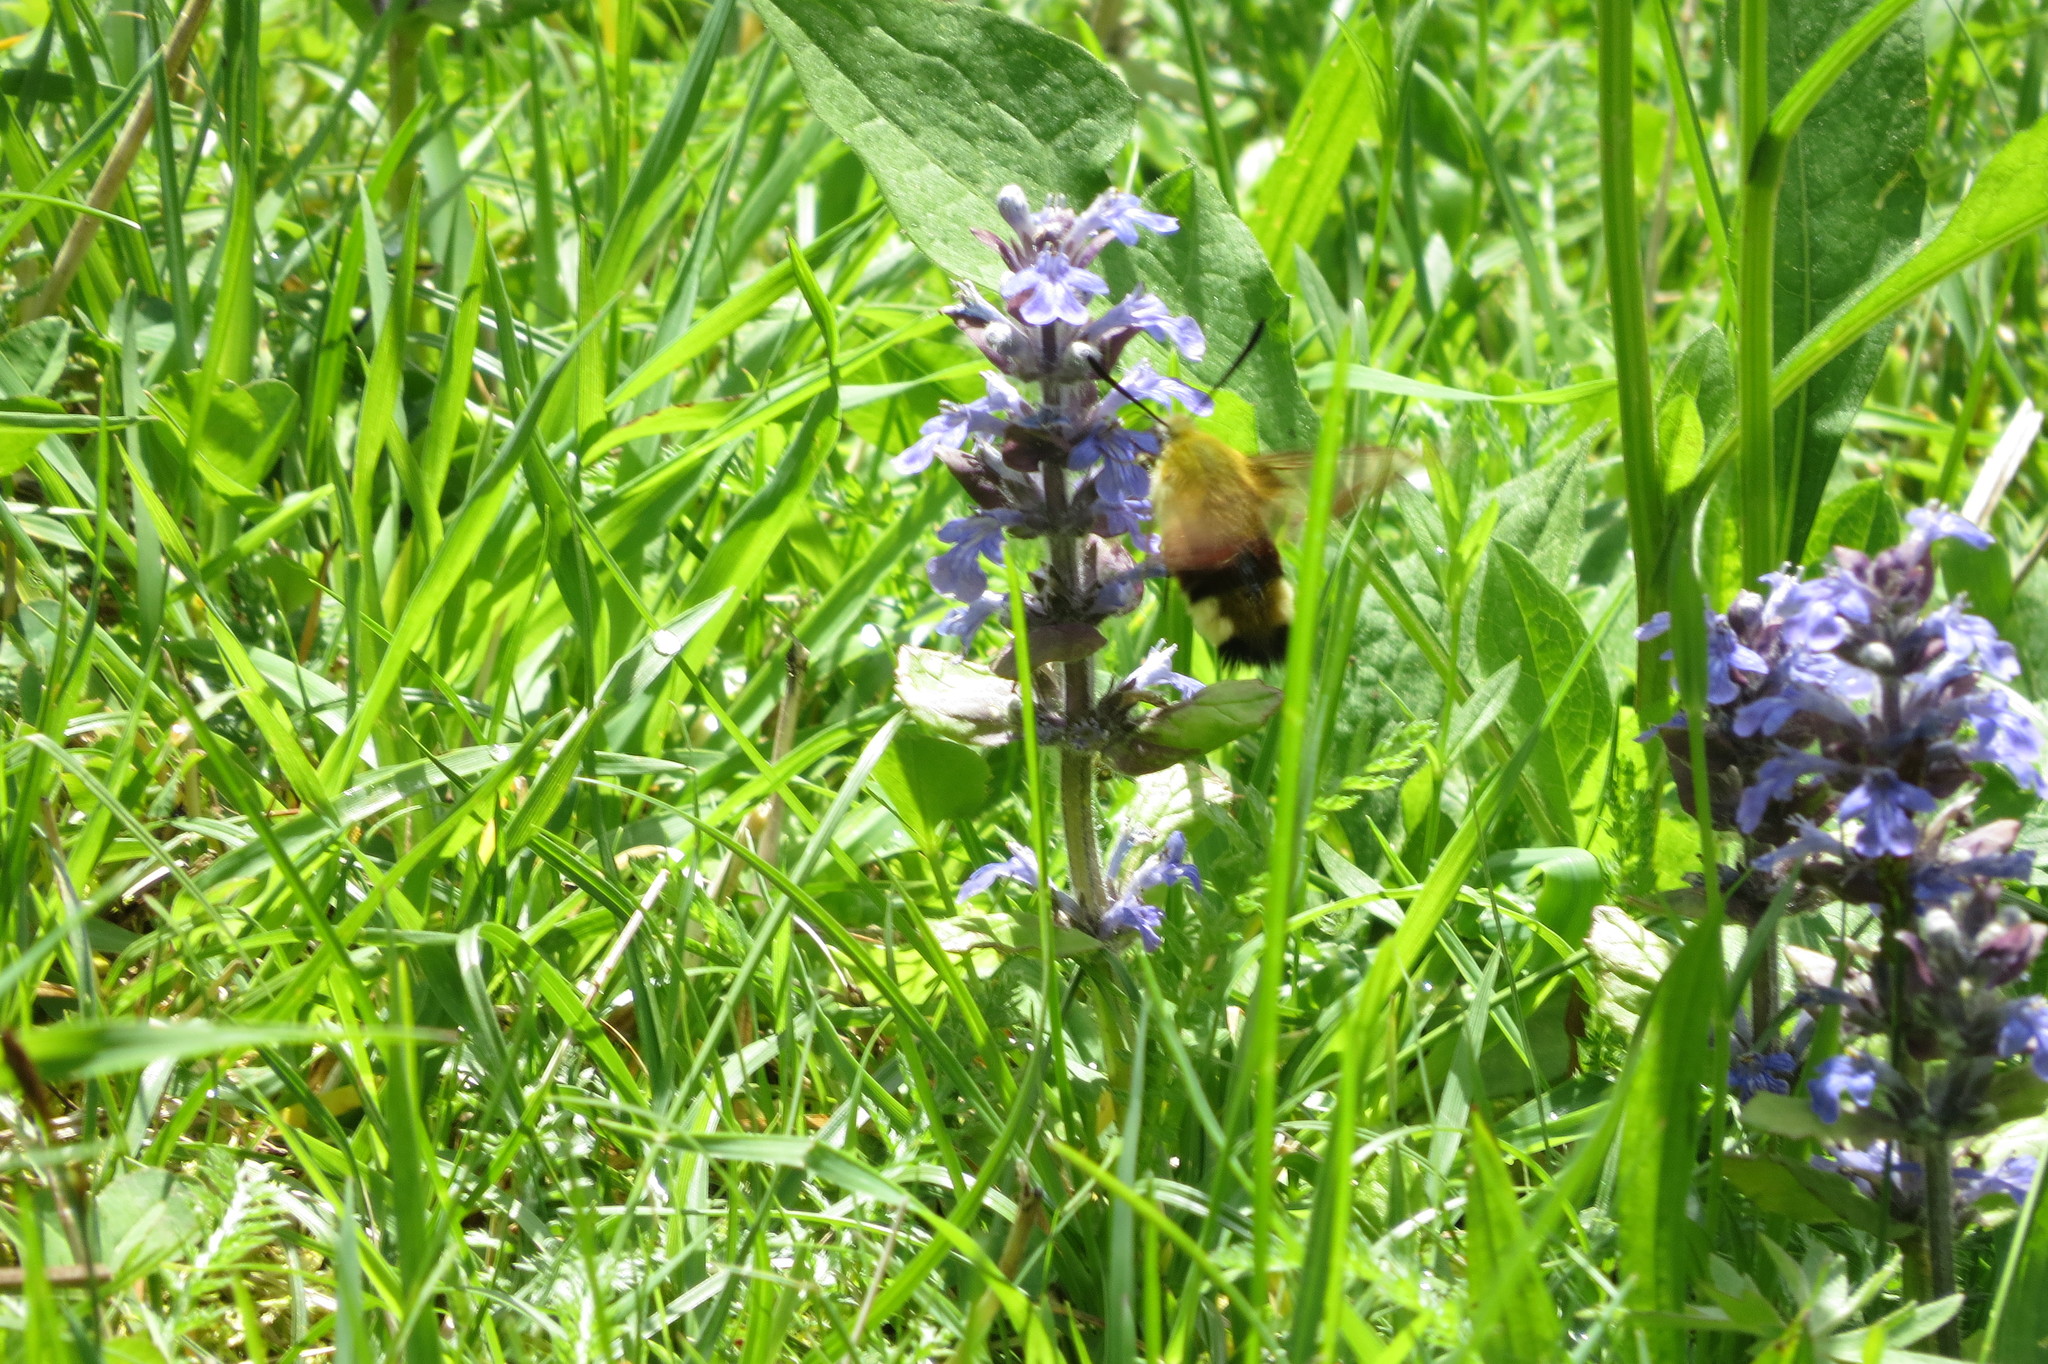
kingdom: Animalia
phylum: Arthropoda
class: Insecta
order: Lepidoptera
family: Sphingidae
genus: Hemaris
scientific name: Hemaris fuciformis
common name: Broad-bordered bee hawk-moth
